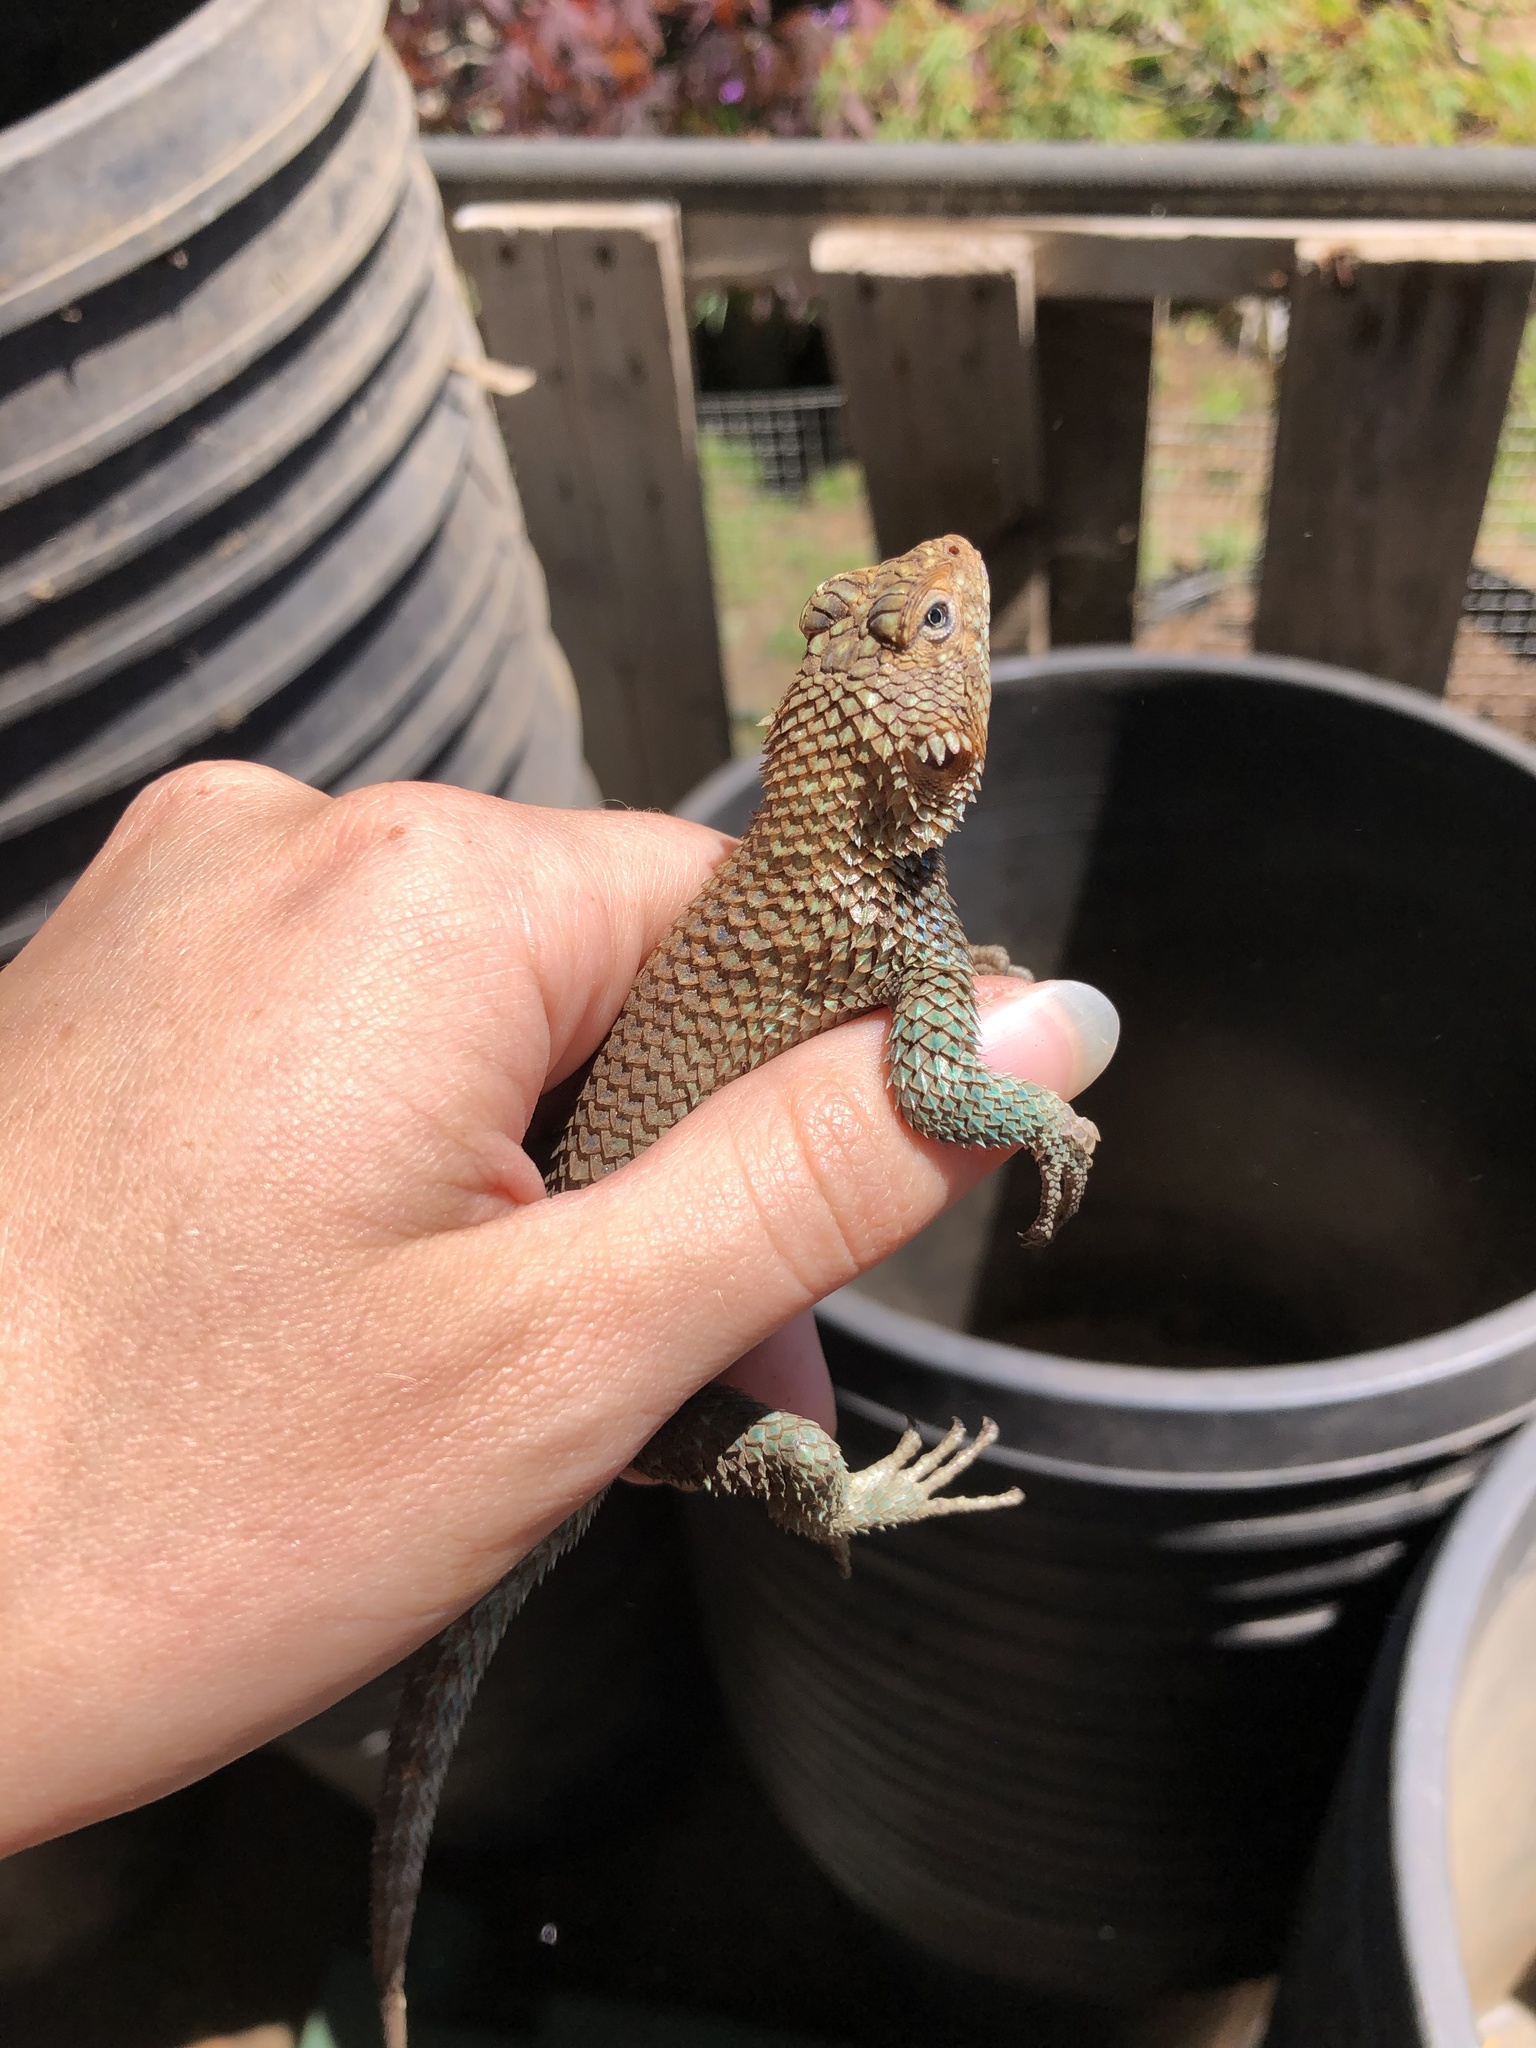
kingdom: Animalia
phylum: Chordata
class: Squamata
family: Phrynosomatidae
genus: Sceloporus
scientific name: Sceloporus orcutti
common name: Granite spiny lizard
